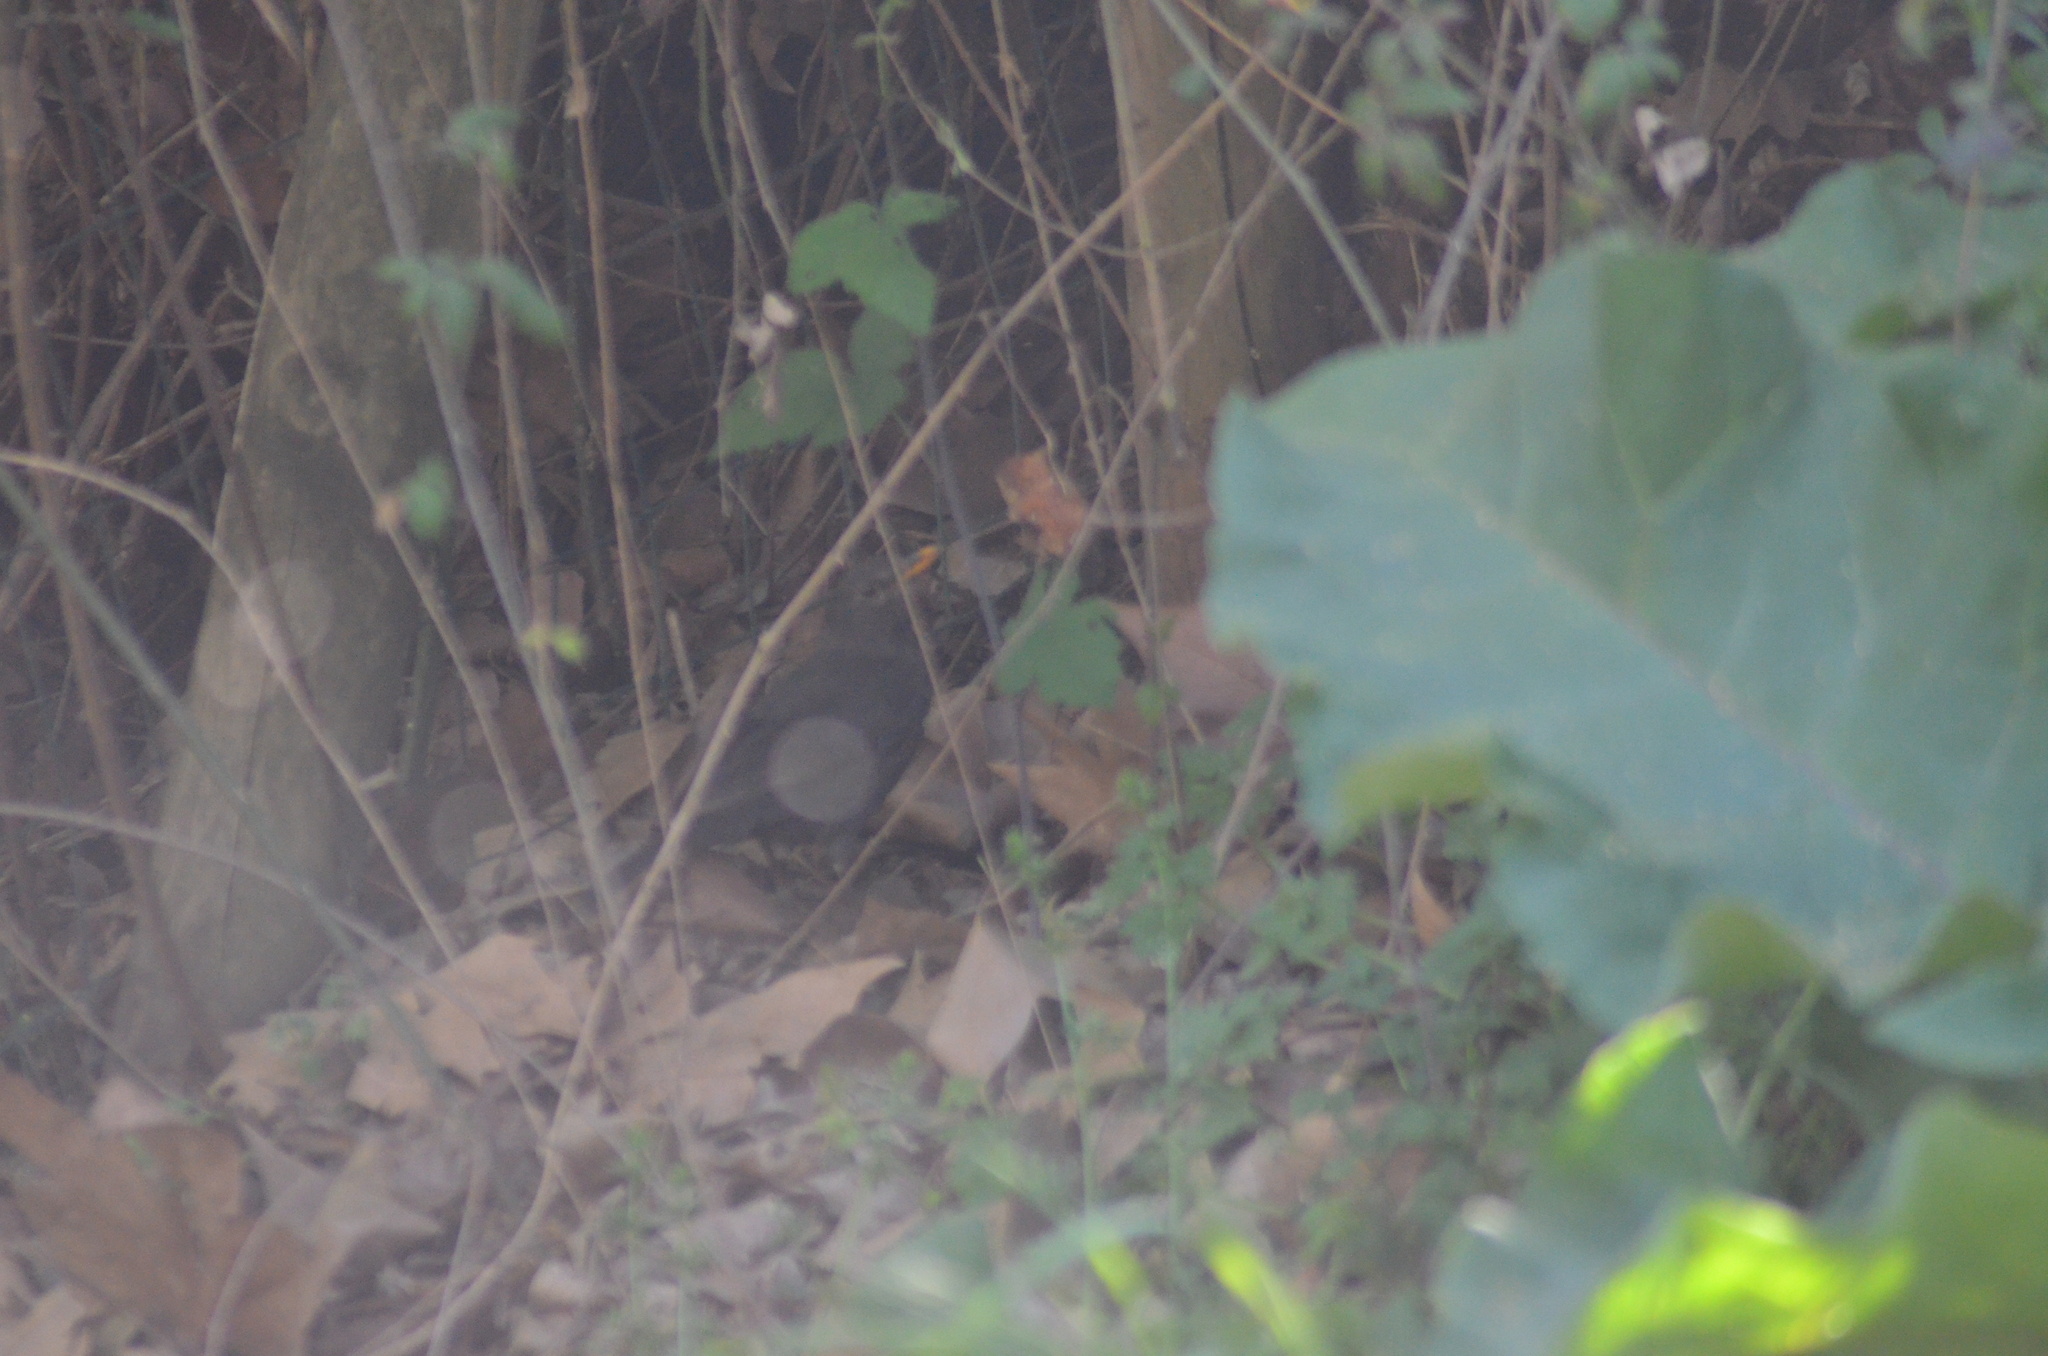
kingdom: Animalia
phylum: Chordata
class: Aves
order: Passeriformes
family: Turdidae
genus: Turdus
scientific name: Turdus merula
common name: Common blackbird
